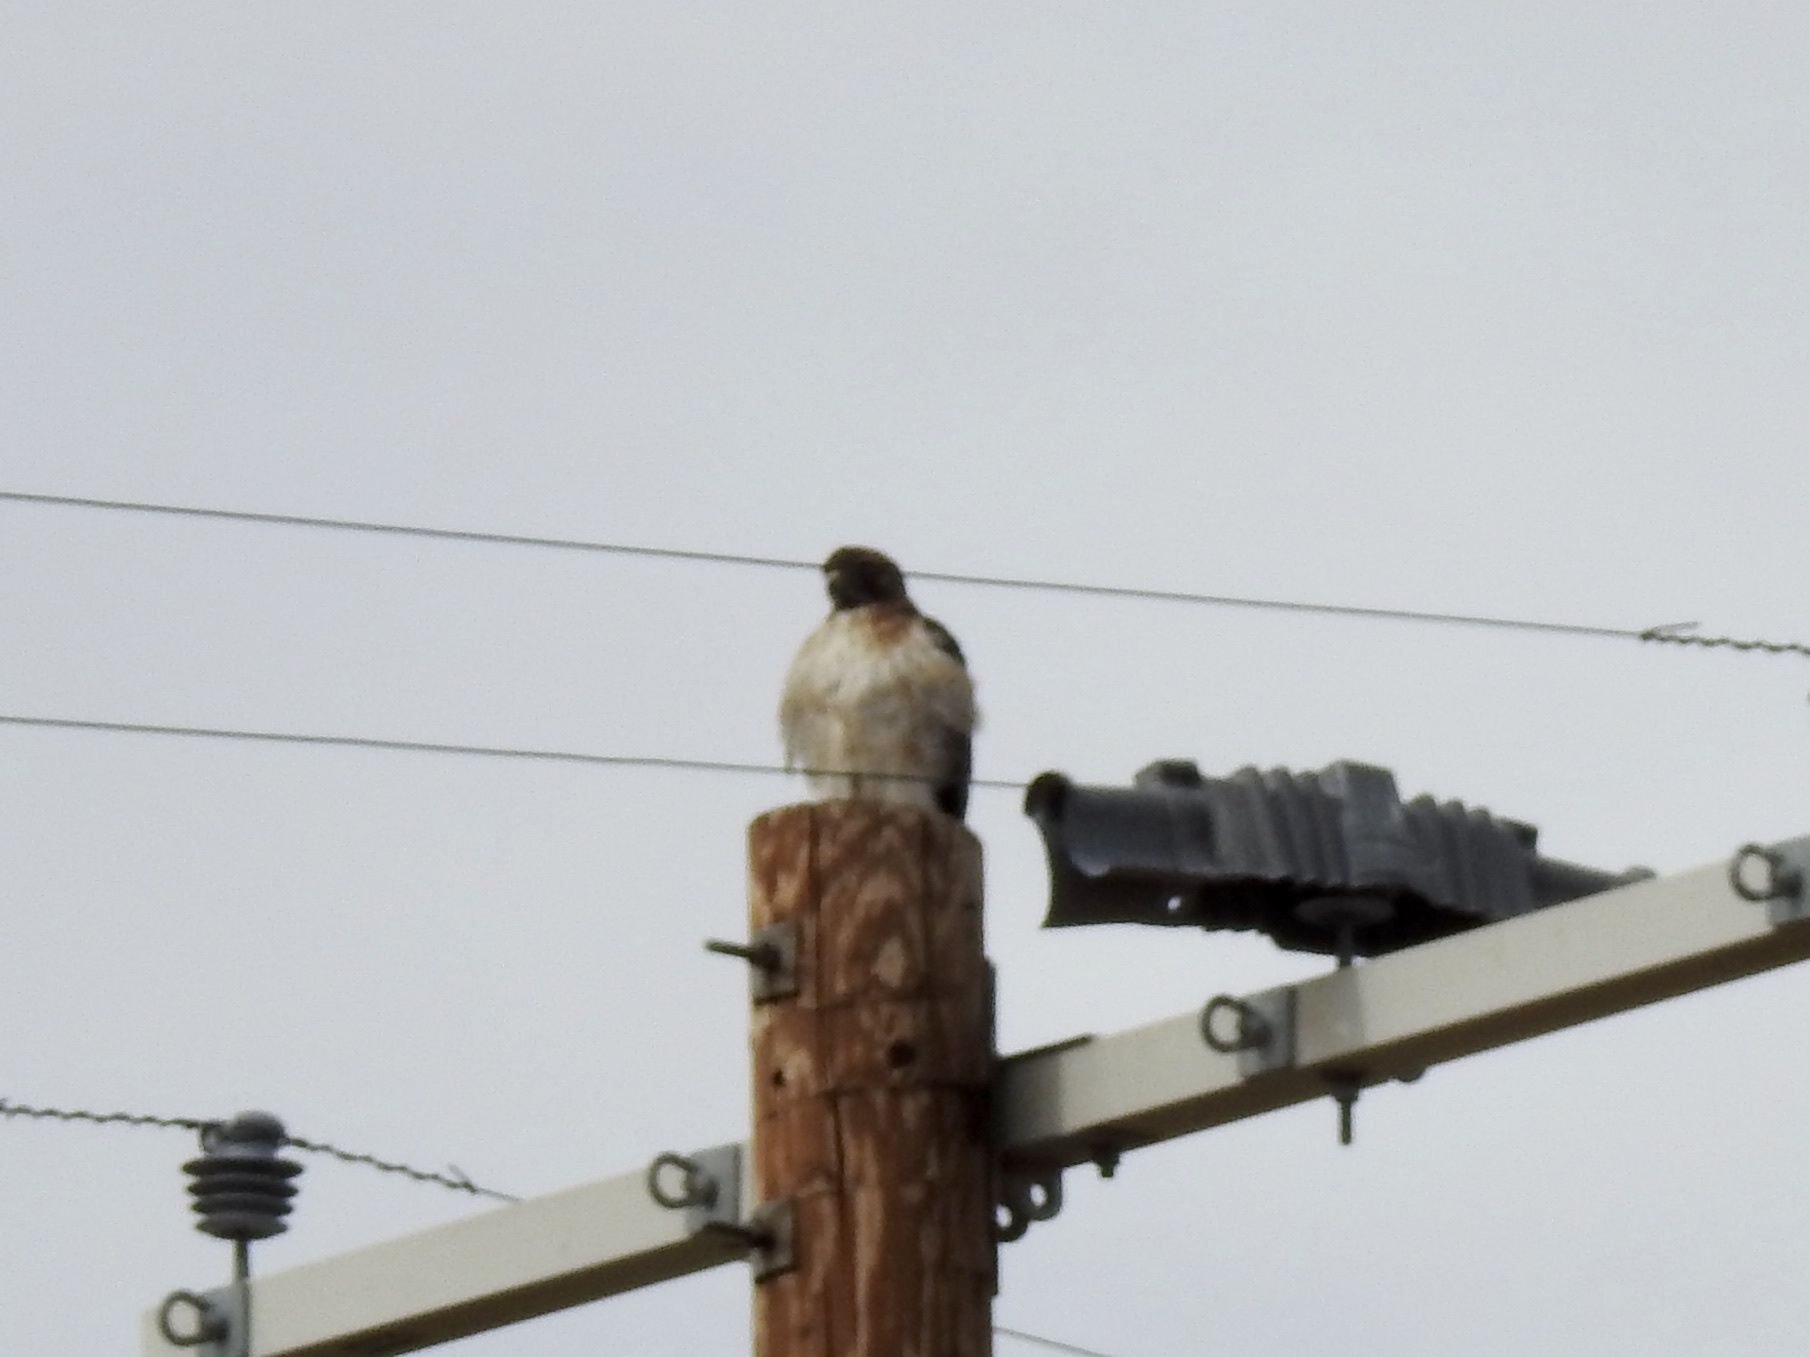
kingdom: Animalia
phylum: Chordata
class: Aves
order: Accipitriformes
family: Accipitridae
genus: Buteo
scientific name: Buteo jamaicensis
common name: Red-tailed hawk
